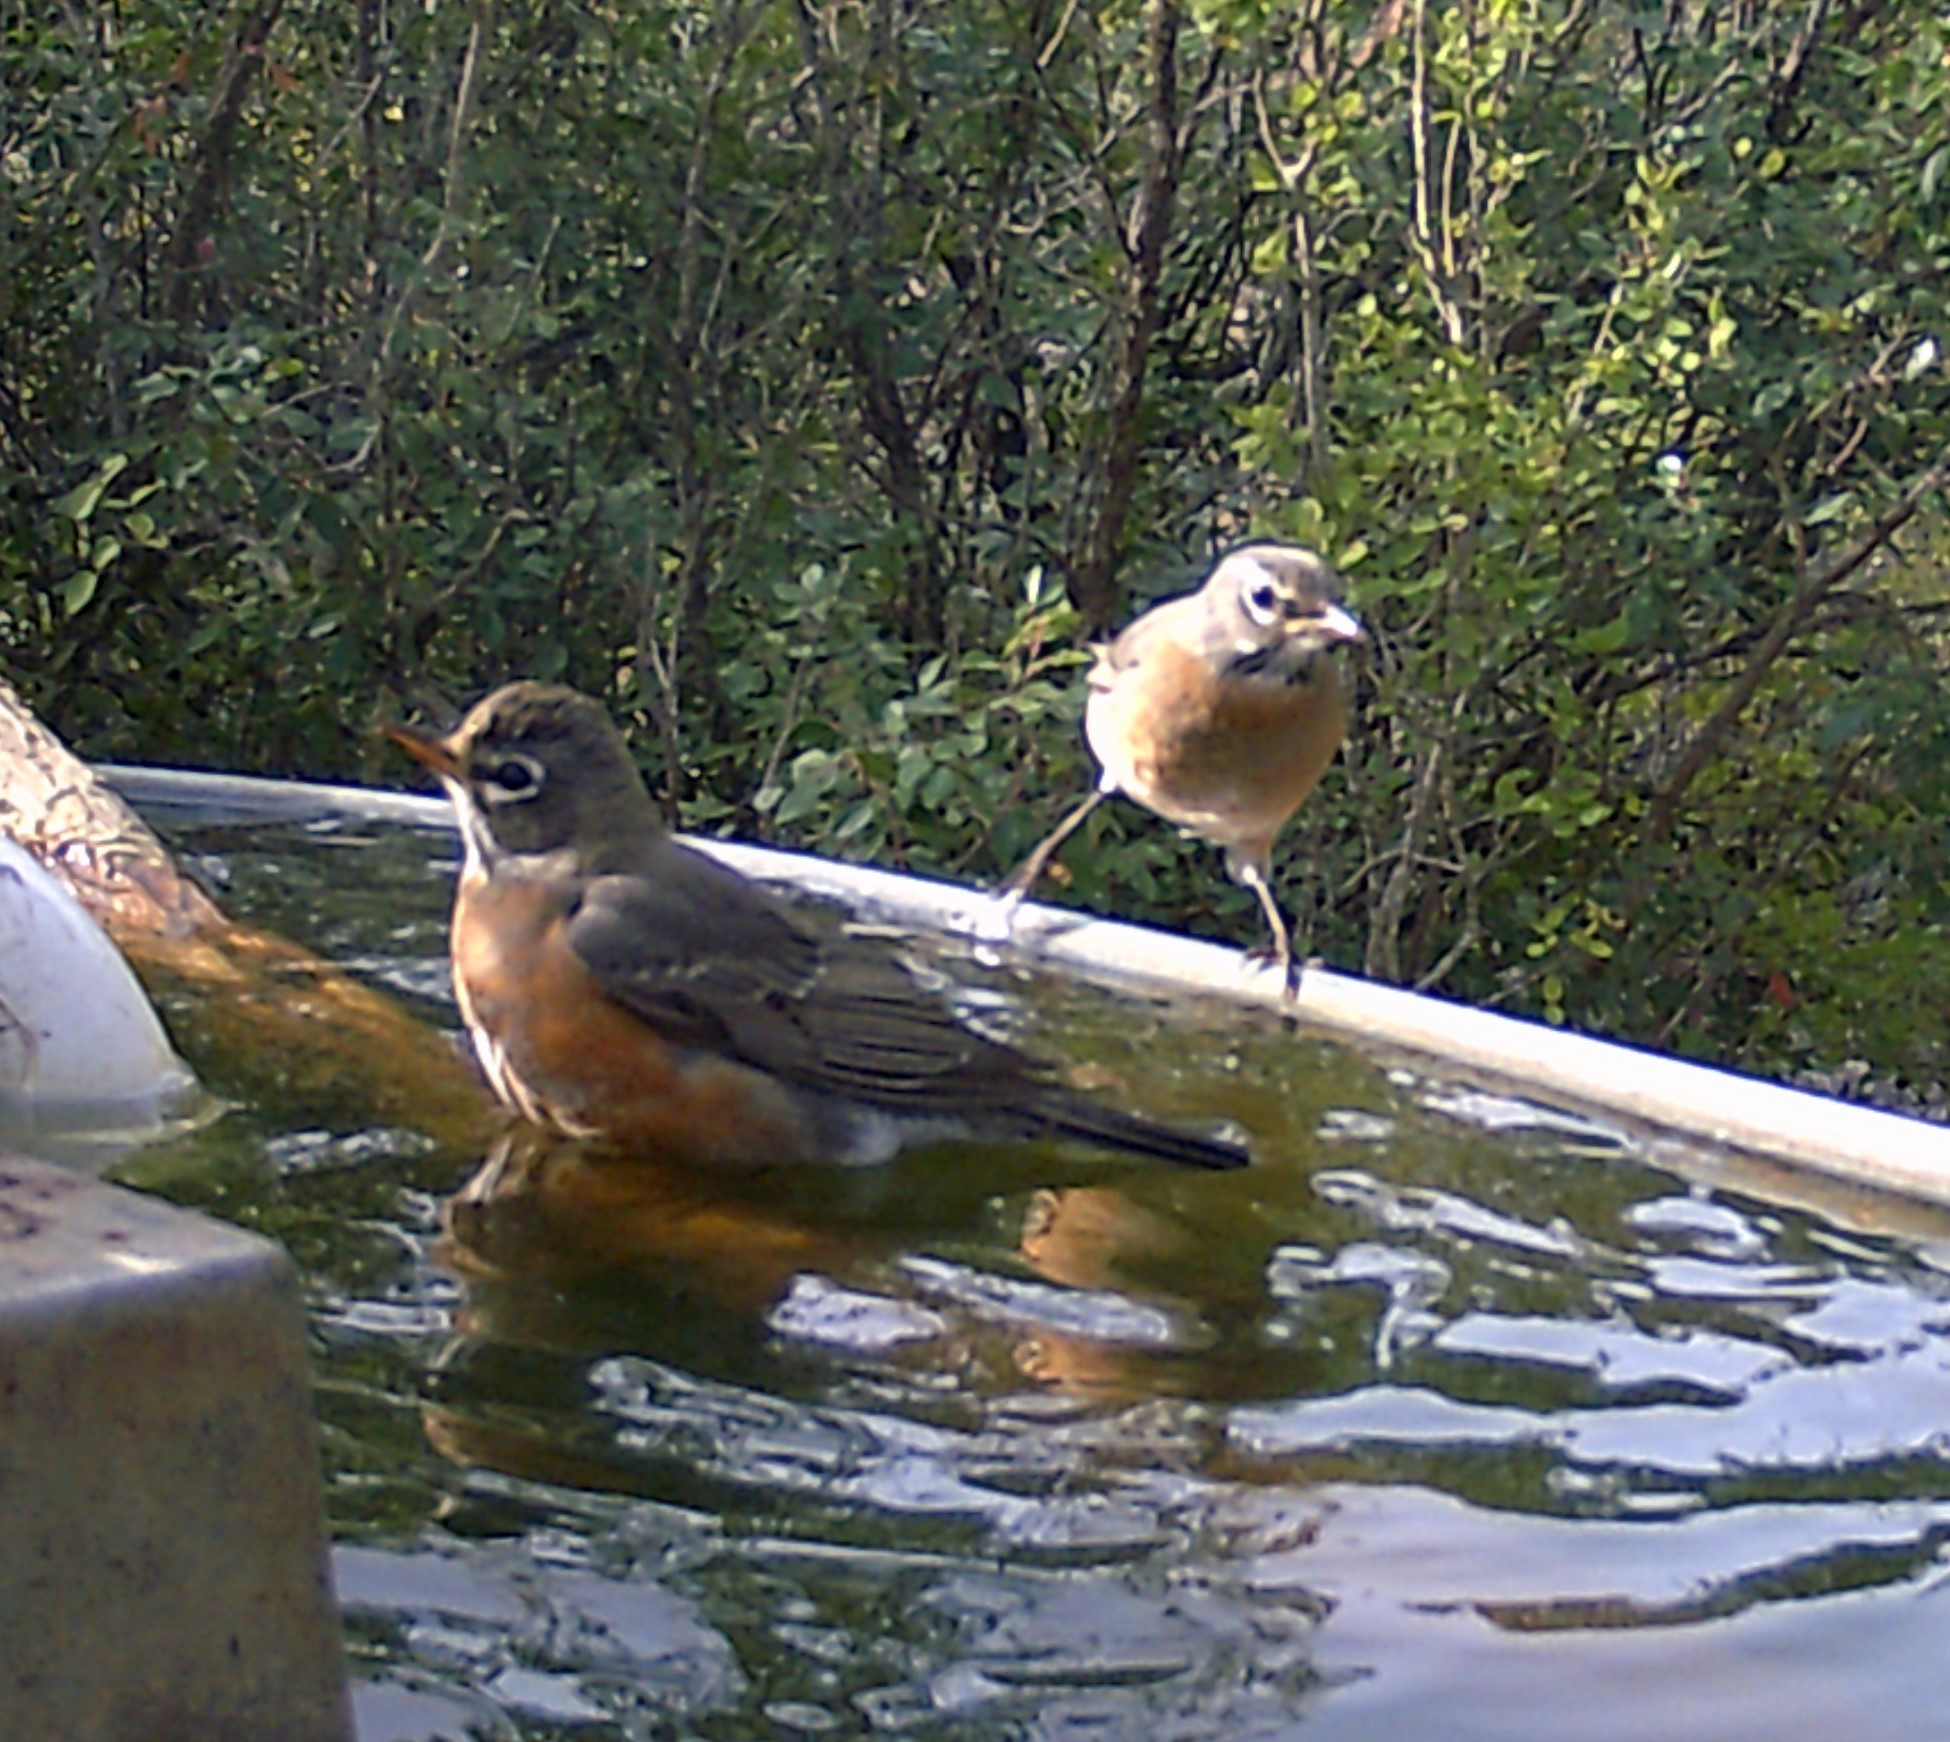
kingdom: Animalia
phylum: Chordata
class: Aves
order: Passeriformes
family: Turdidae
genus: Turdus
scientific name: Turdus migratorius
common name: American robin
